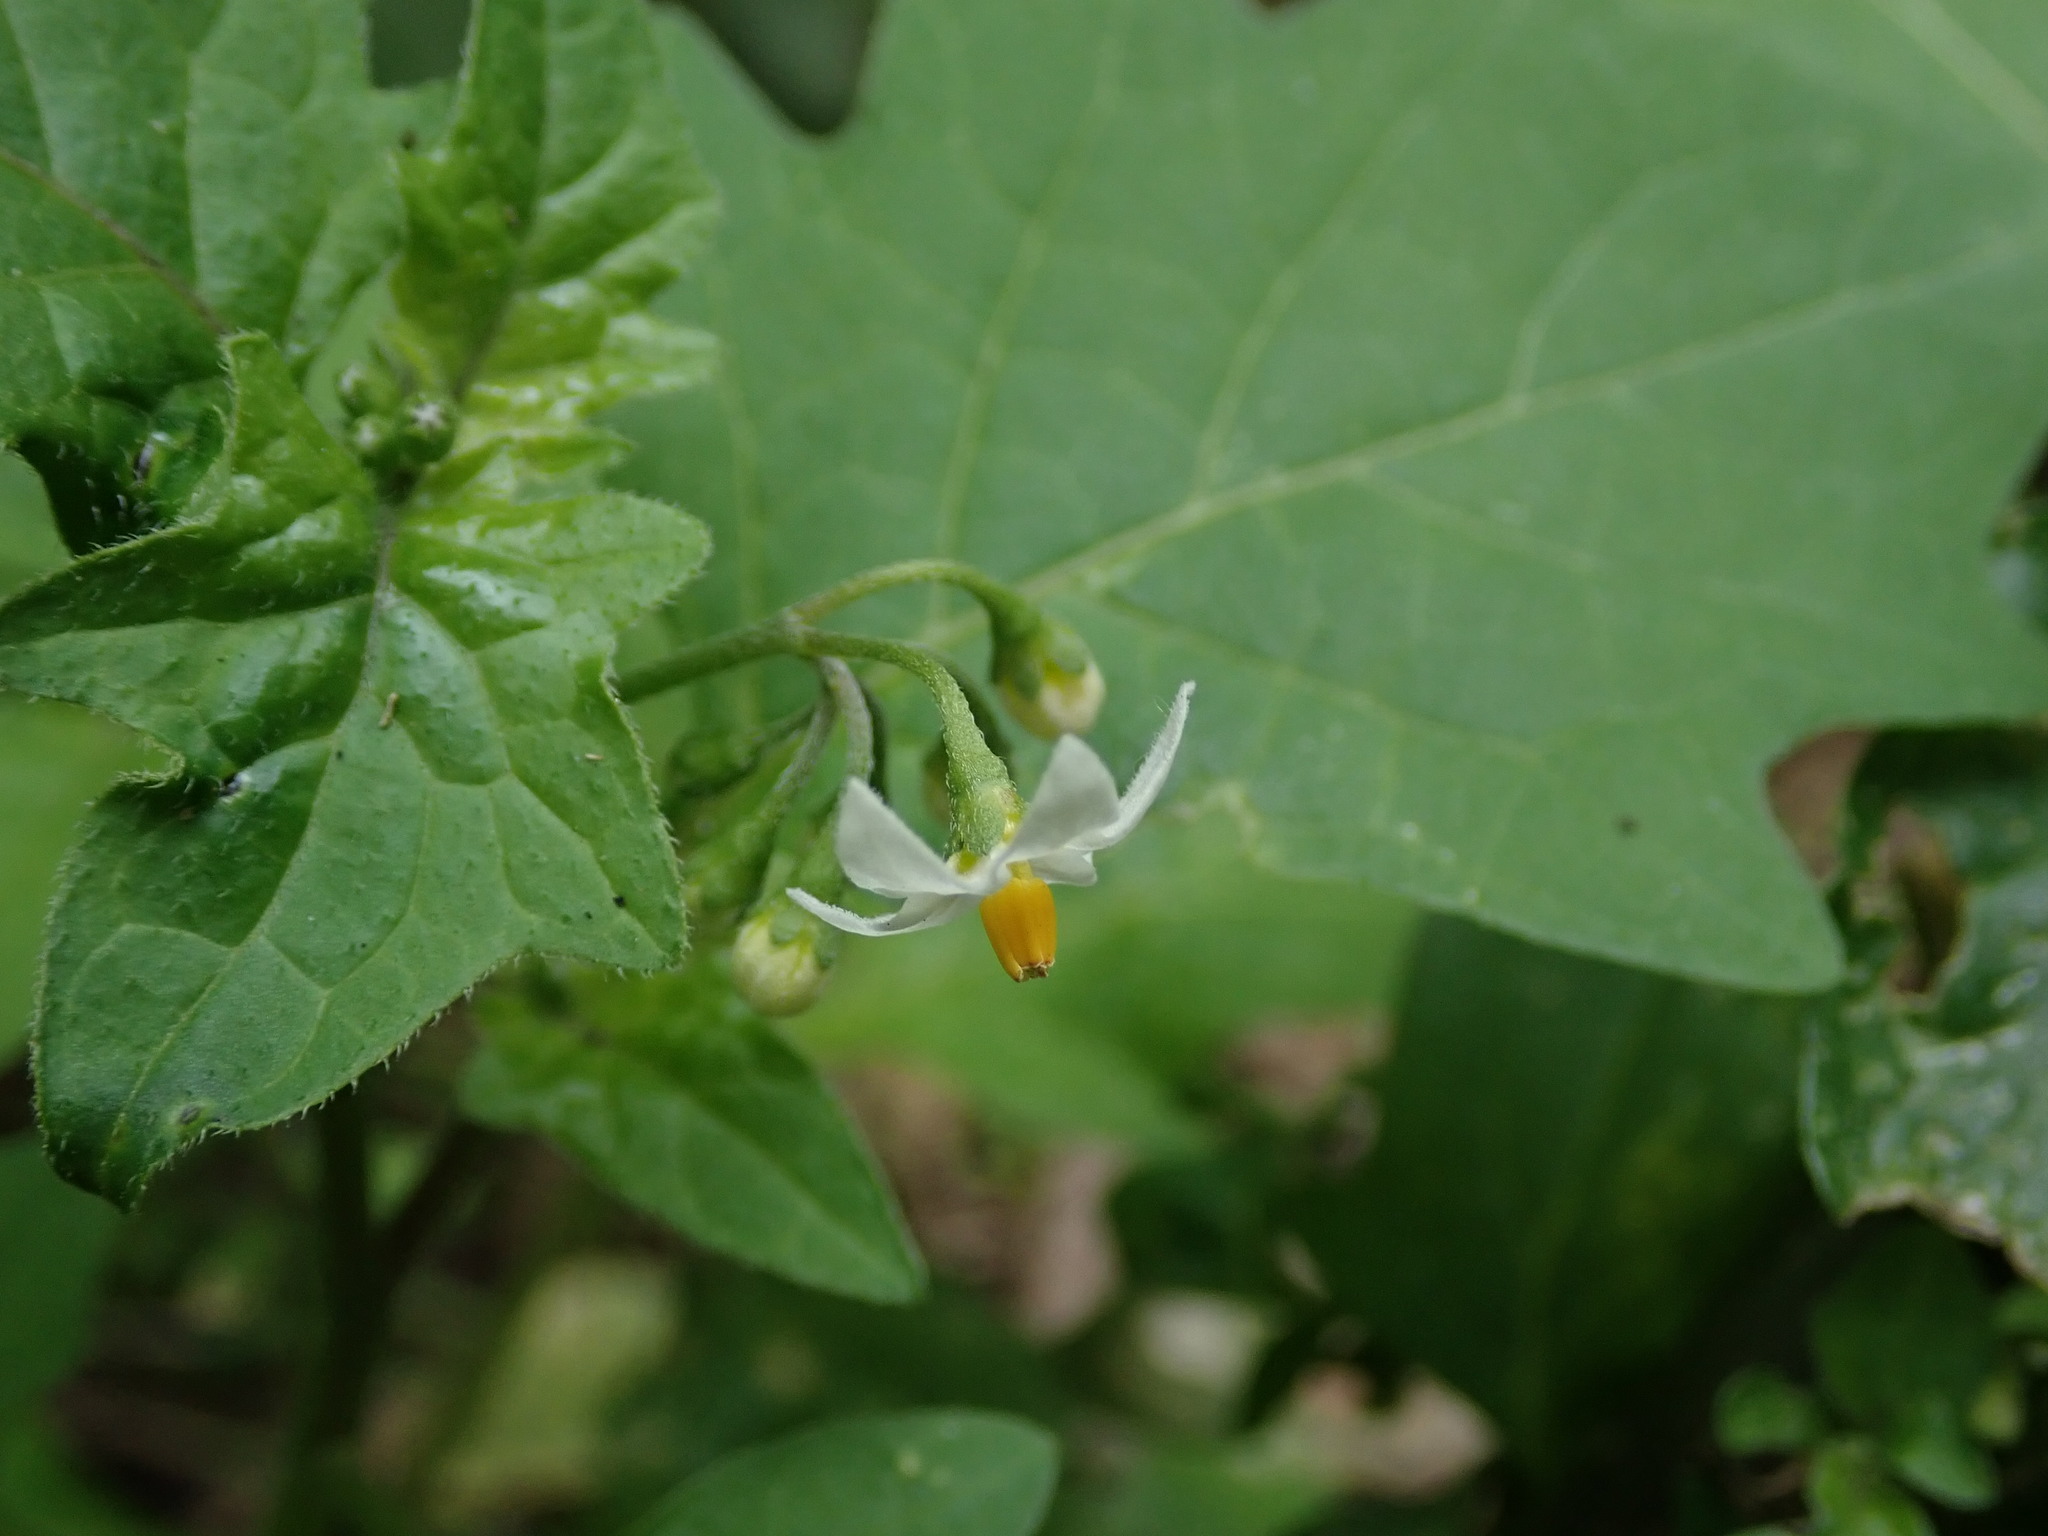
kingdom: Plantae
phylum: Tracheophyta
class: Magnoliopsida
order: Solanales
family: Solanaceae
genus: Solanum
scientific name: Solanum nigrum
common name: Black nightshade
